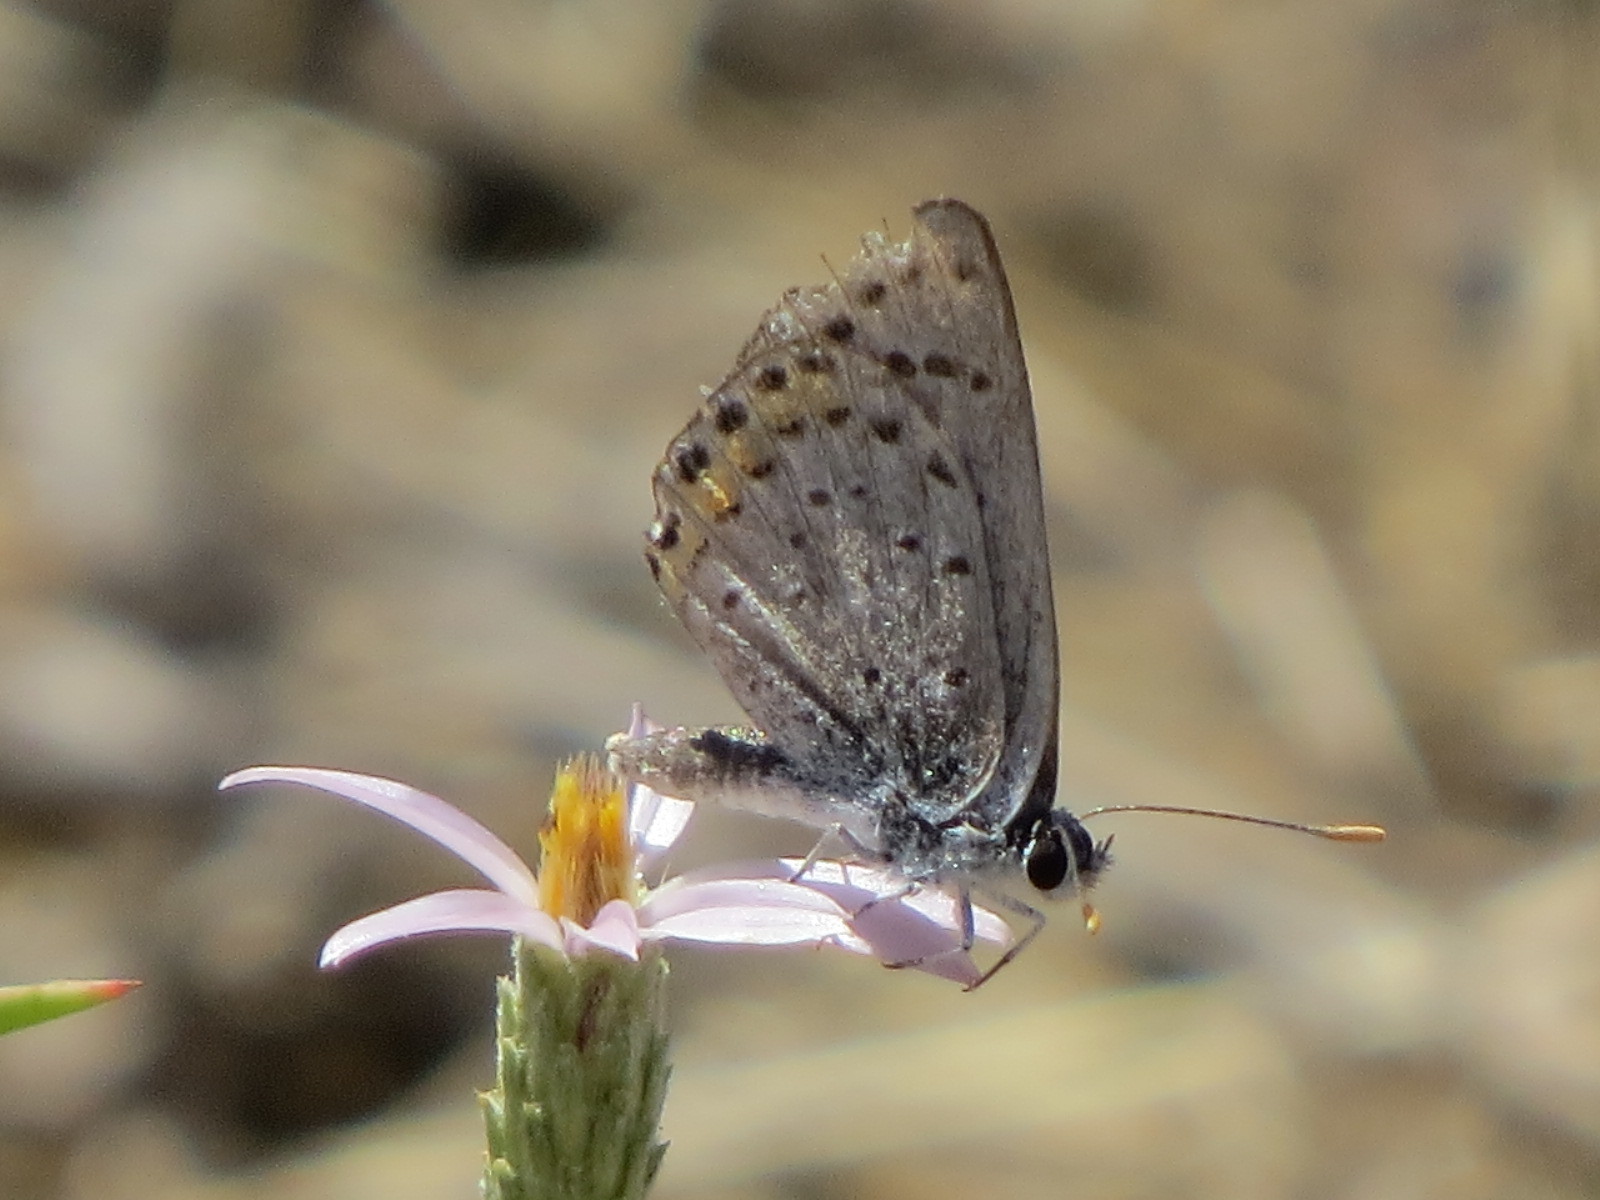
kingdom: Animalia
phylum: Arthropoda
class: Insecta
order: Lepidoptera
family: Lycaenidae
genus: Icaricia
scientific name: Icaricia acmon
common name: Acmon blue
